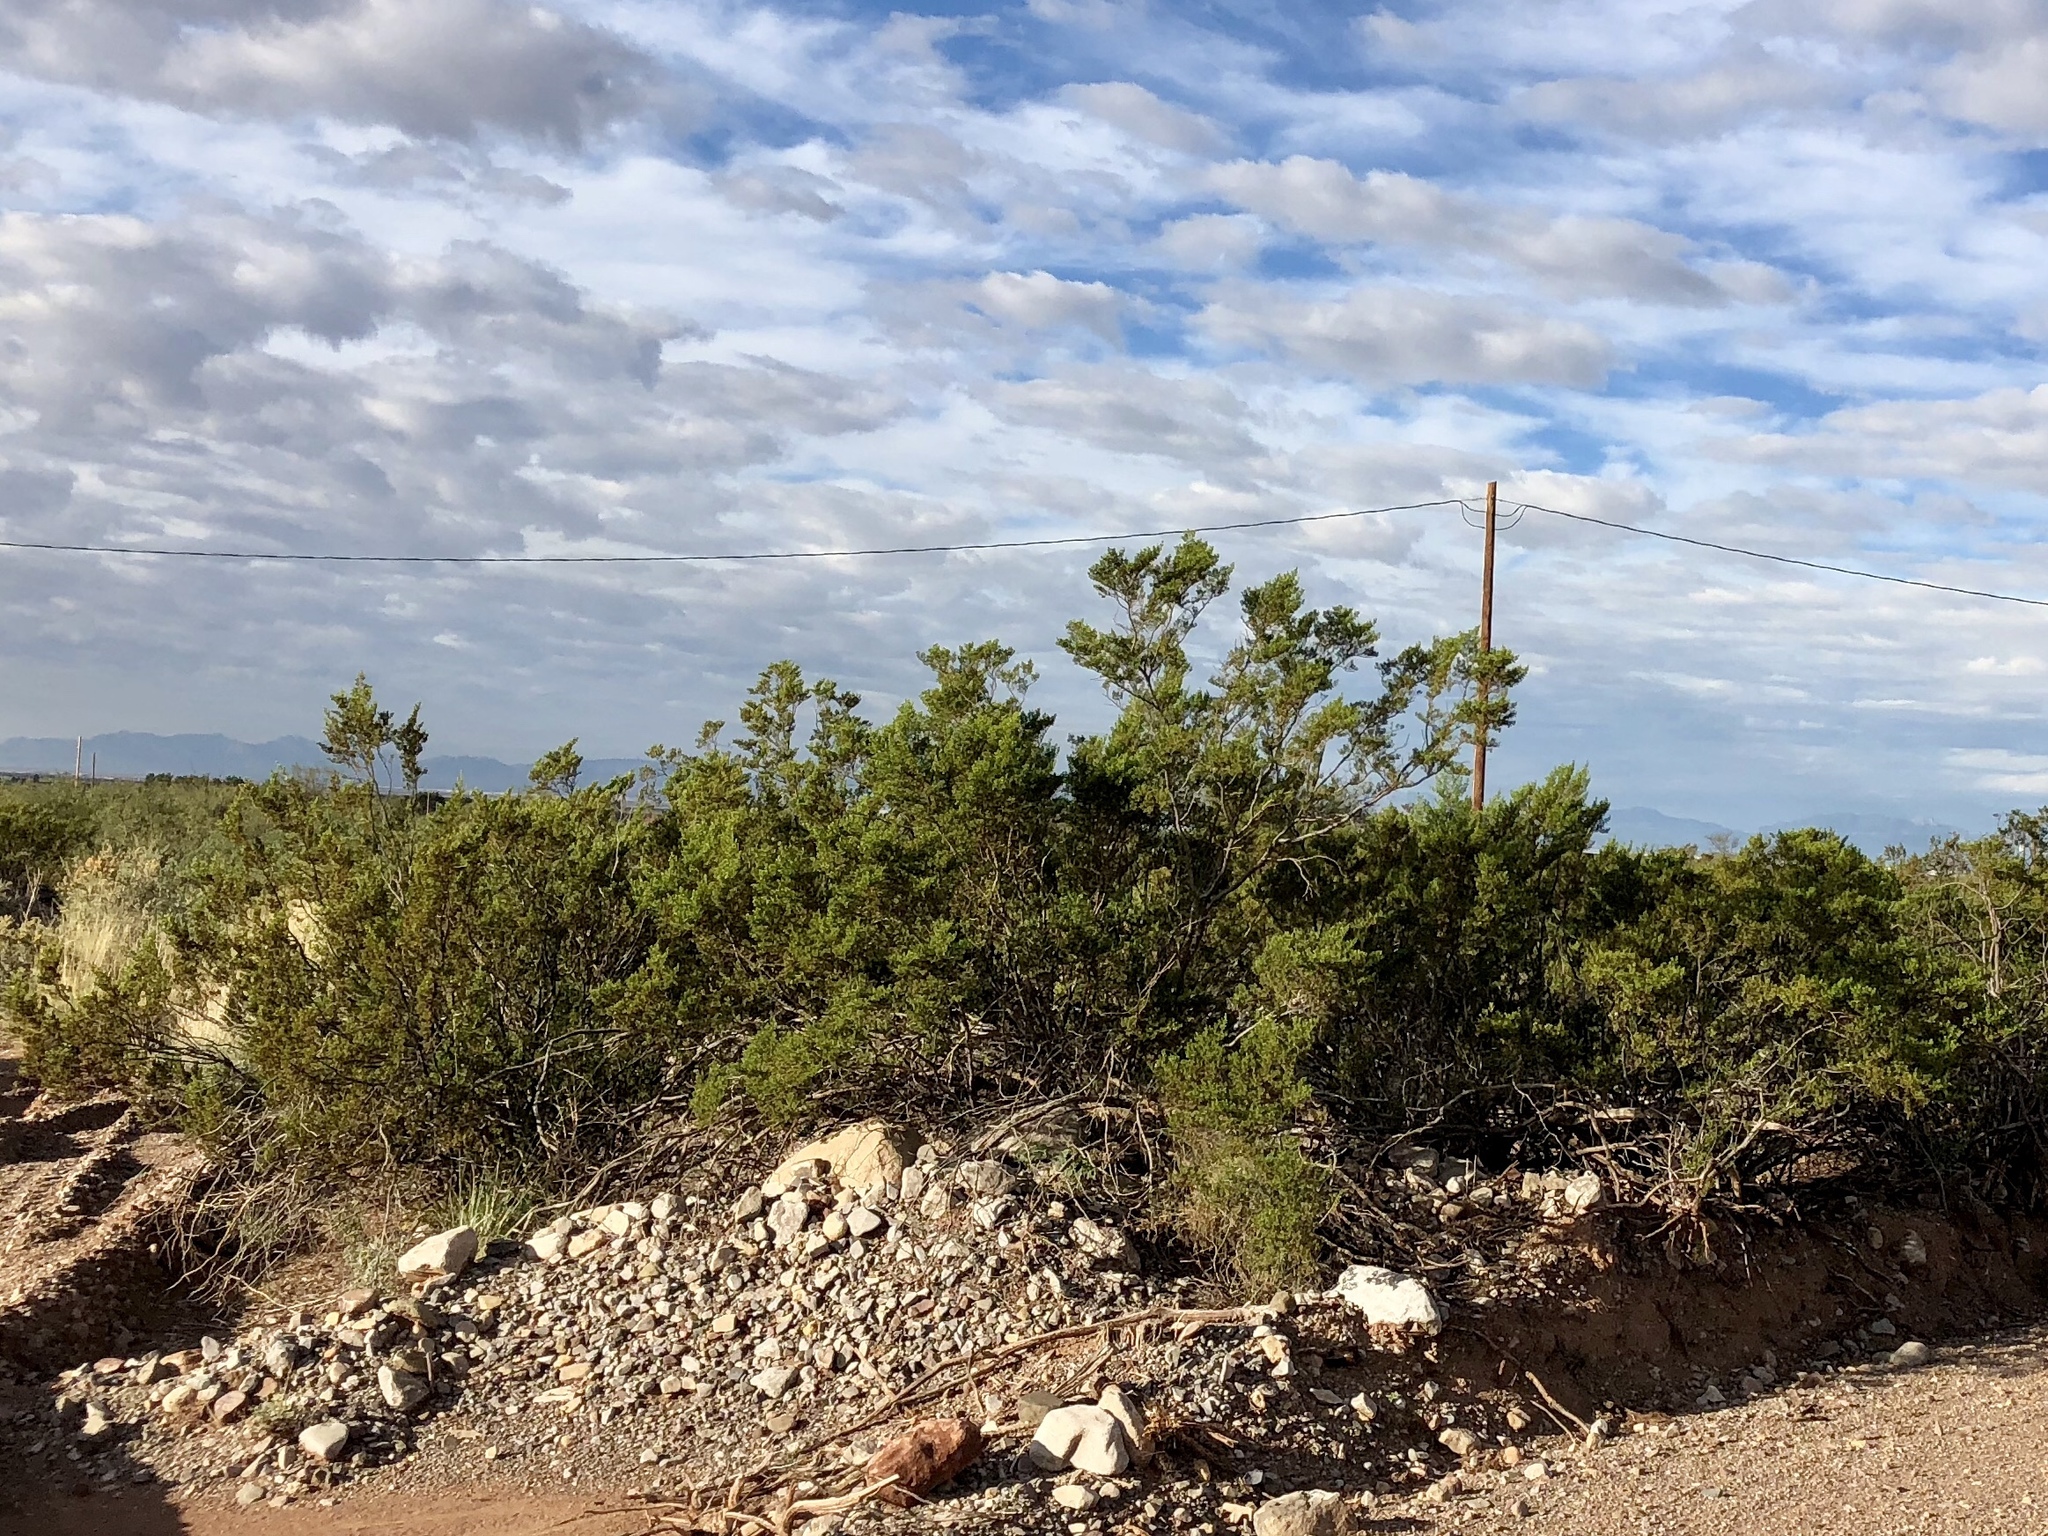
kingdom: Plantae
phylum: Tracheophyta
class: Magnoliopsida
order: Zygophyllales
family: Zygophyllaceae
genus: Larrea
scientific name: Larrea tridentata
